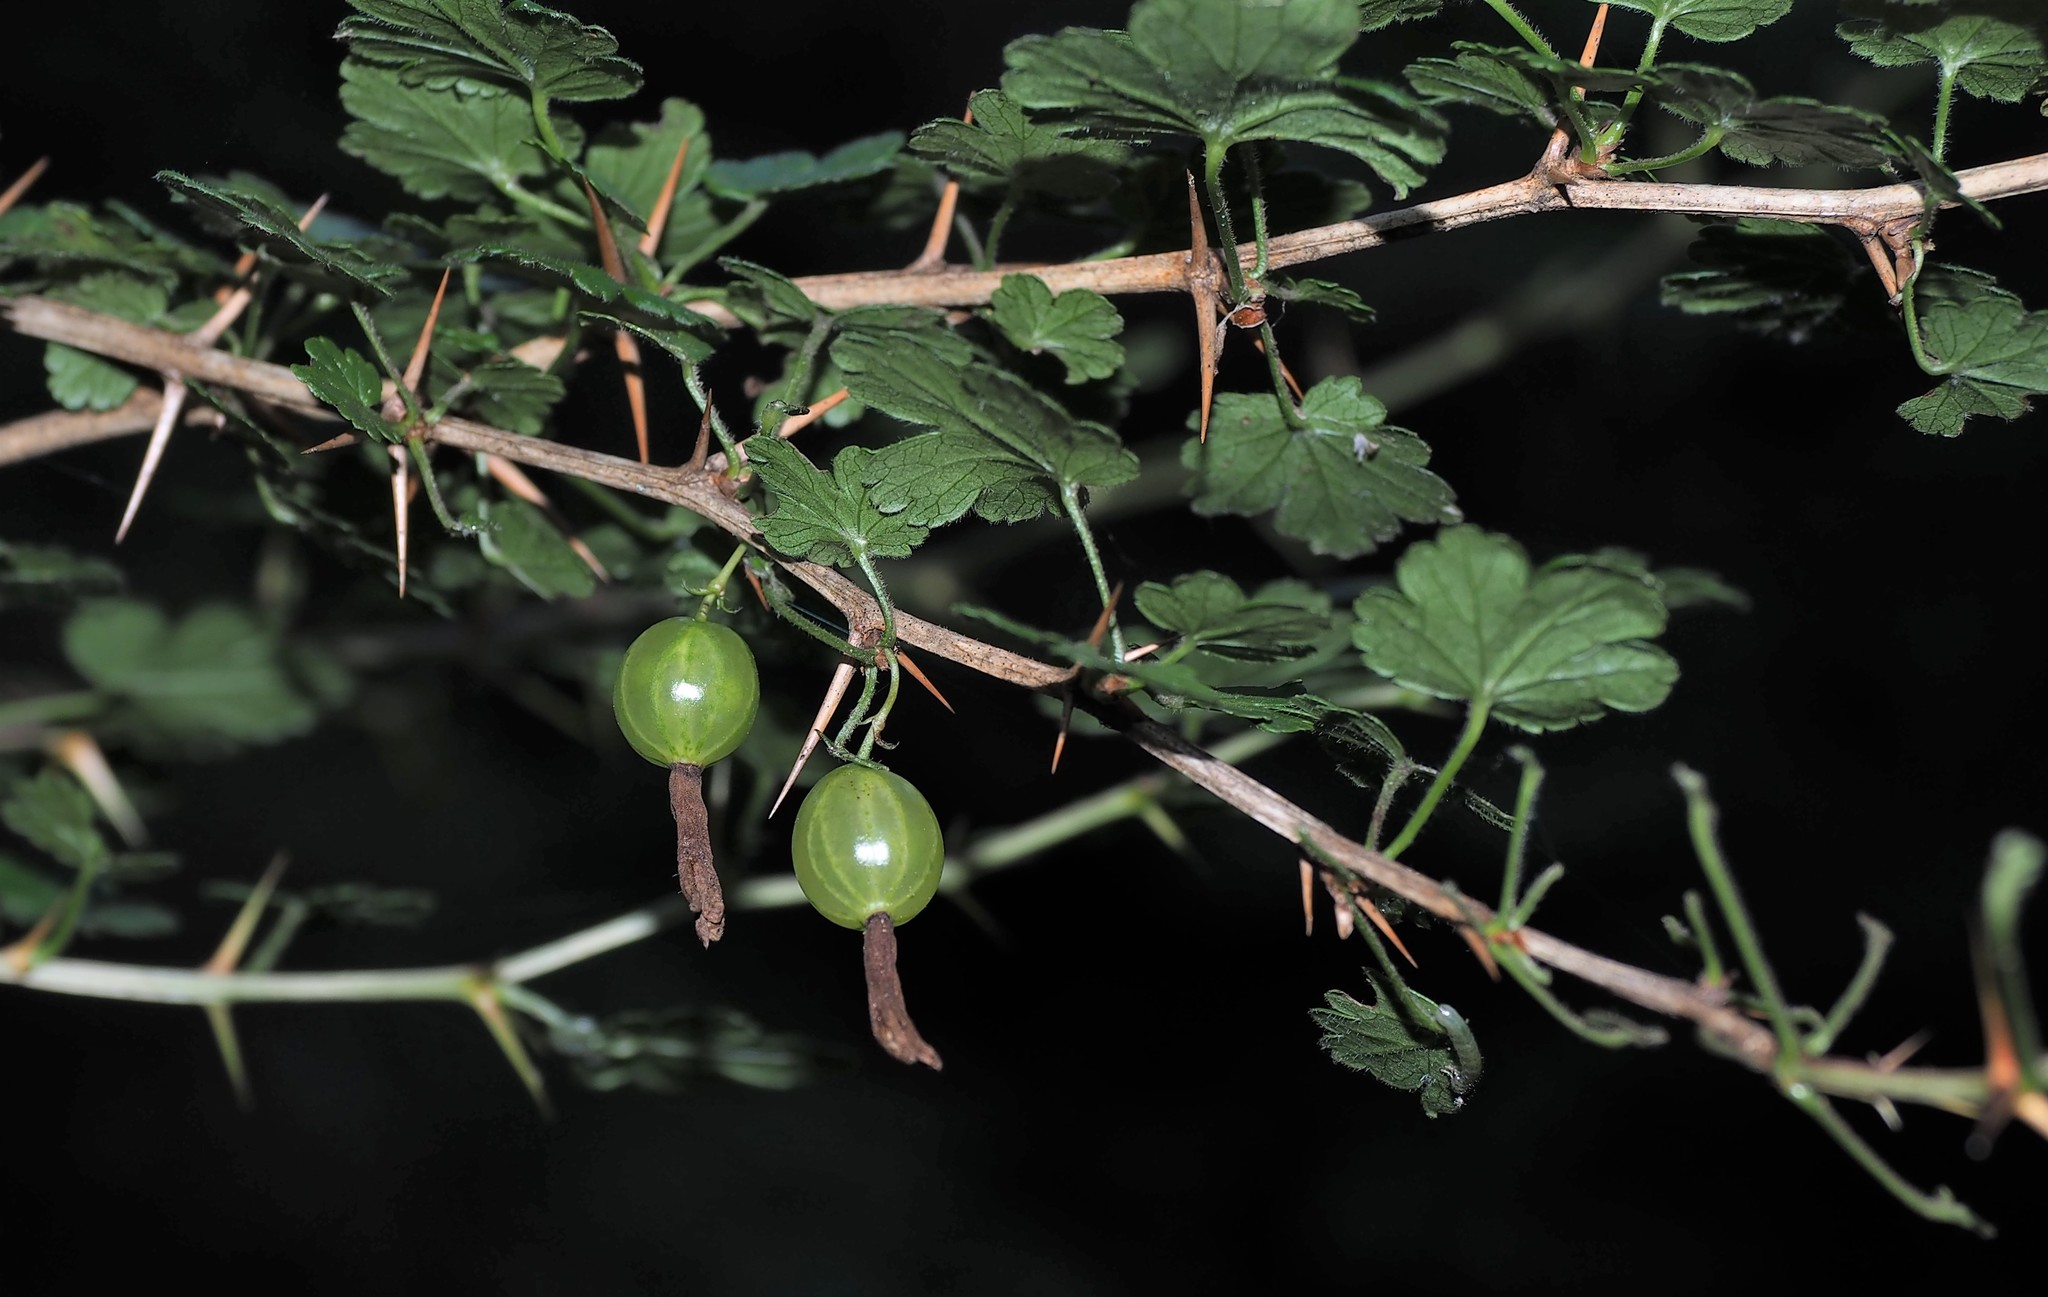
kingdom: Plantae
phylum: Tracheophyta
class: Magnoliopsida
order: Saxifragales
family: Grossulariaceae
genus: Ribes
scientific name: Ribes formosanum
